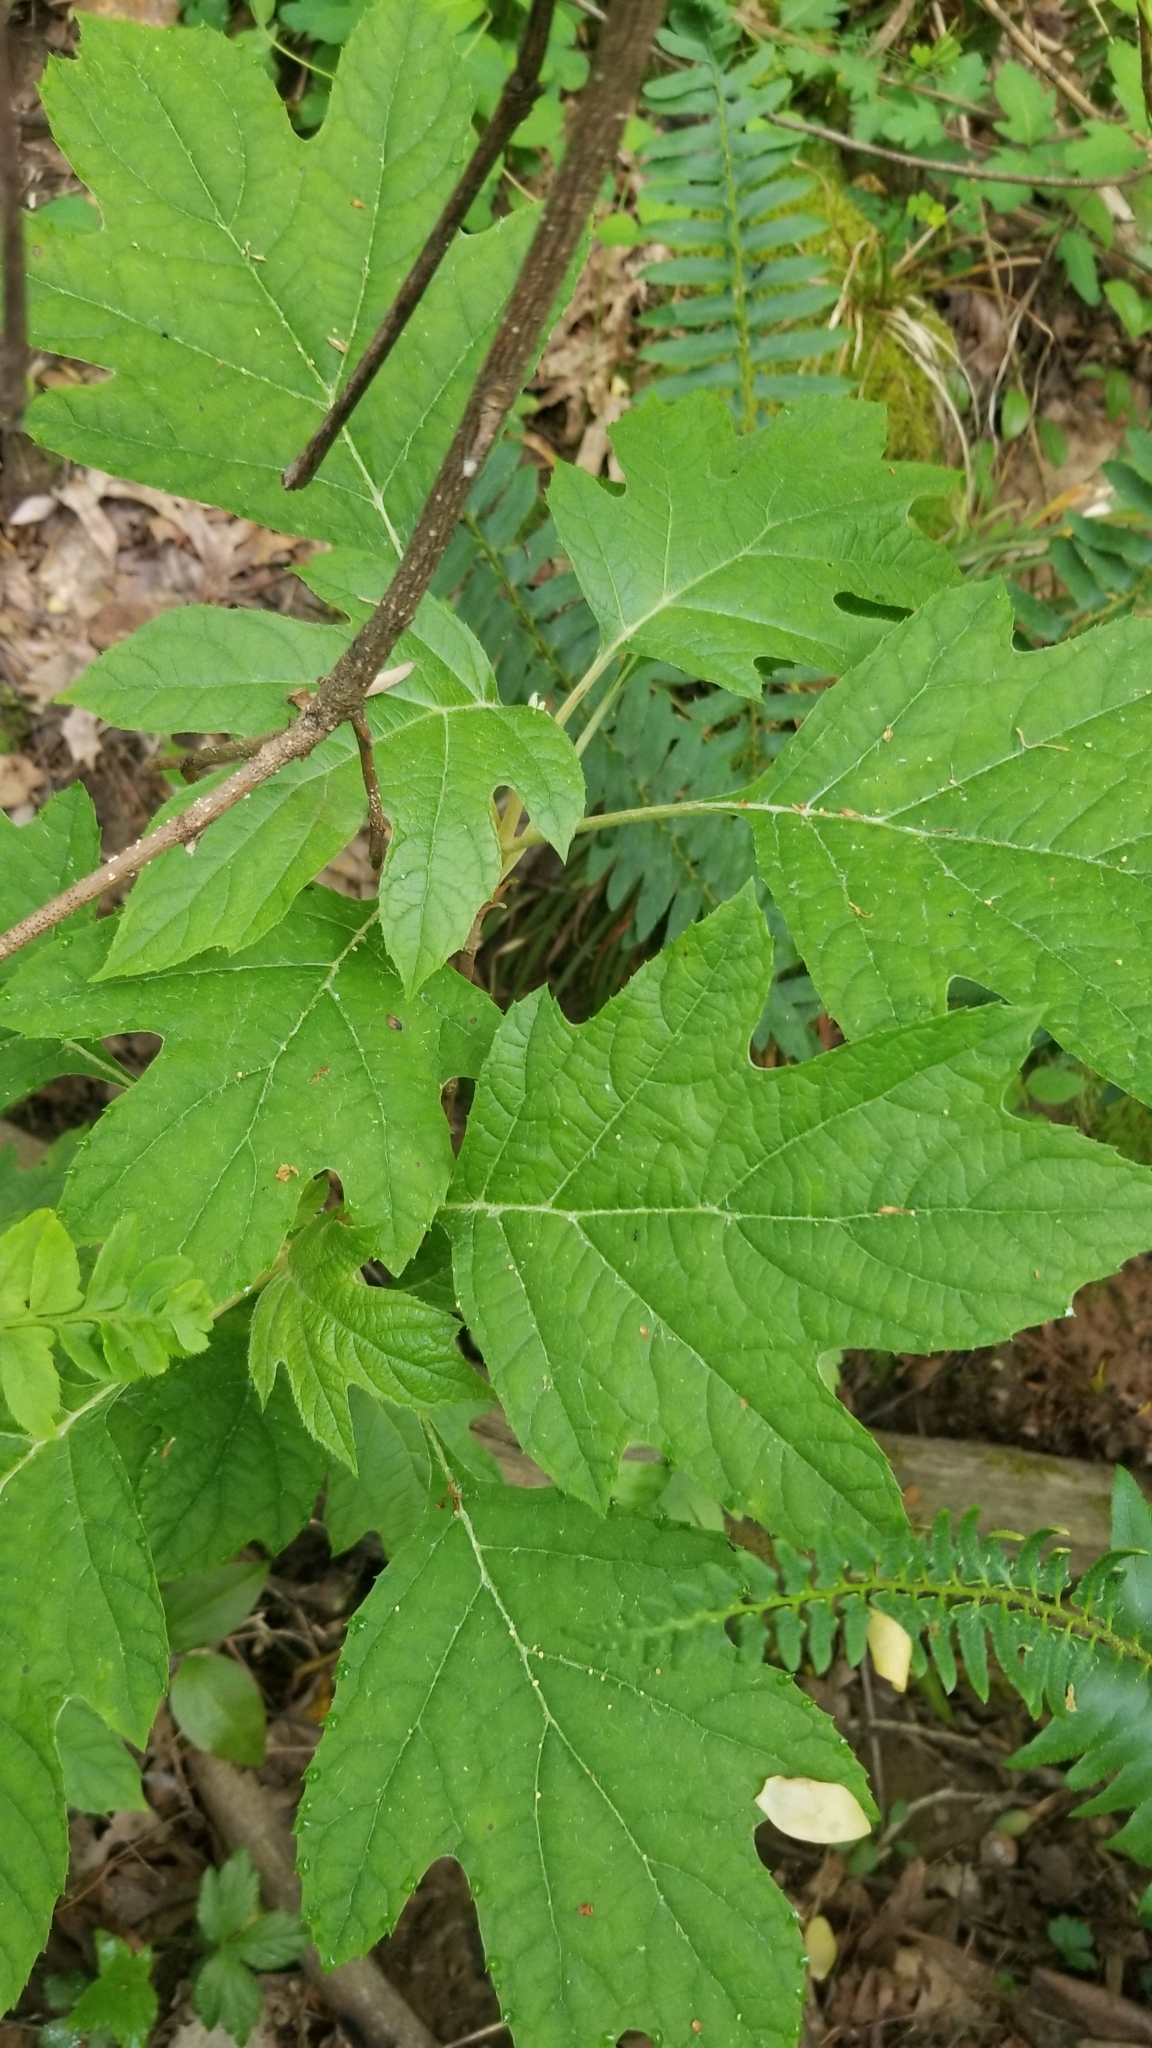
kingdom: Plantae
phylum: Tracheophyta
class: Magnoliopsida
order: Cornales
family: Hydrangeaceae
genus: Hydrangea
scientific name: Hydrangea quercifolia
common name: Oak-leaf hydrangea
